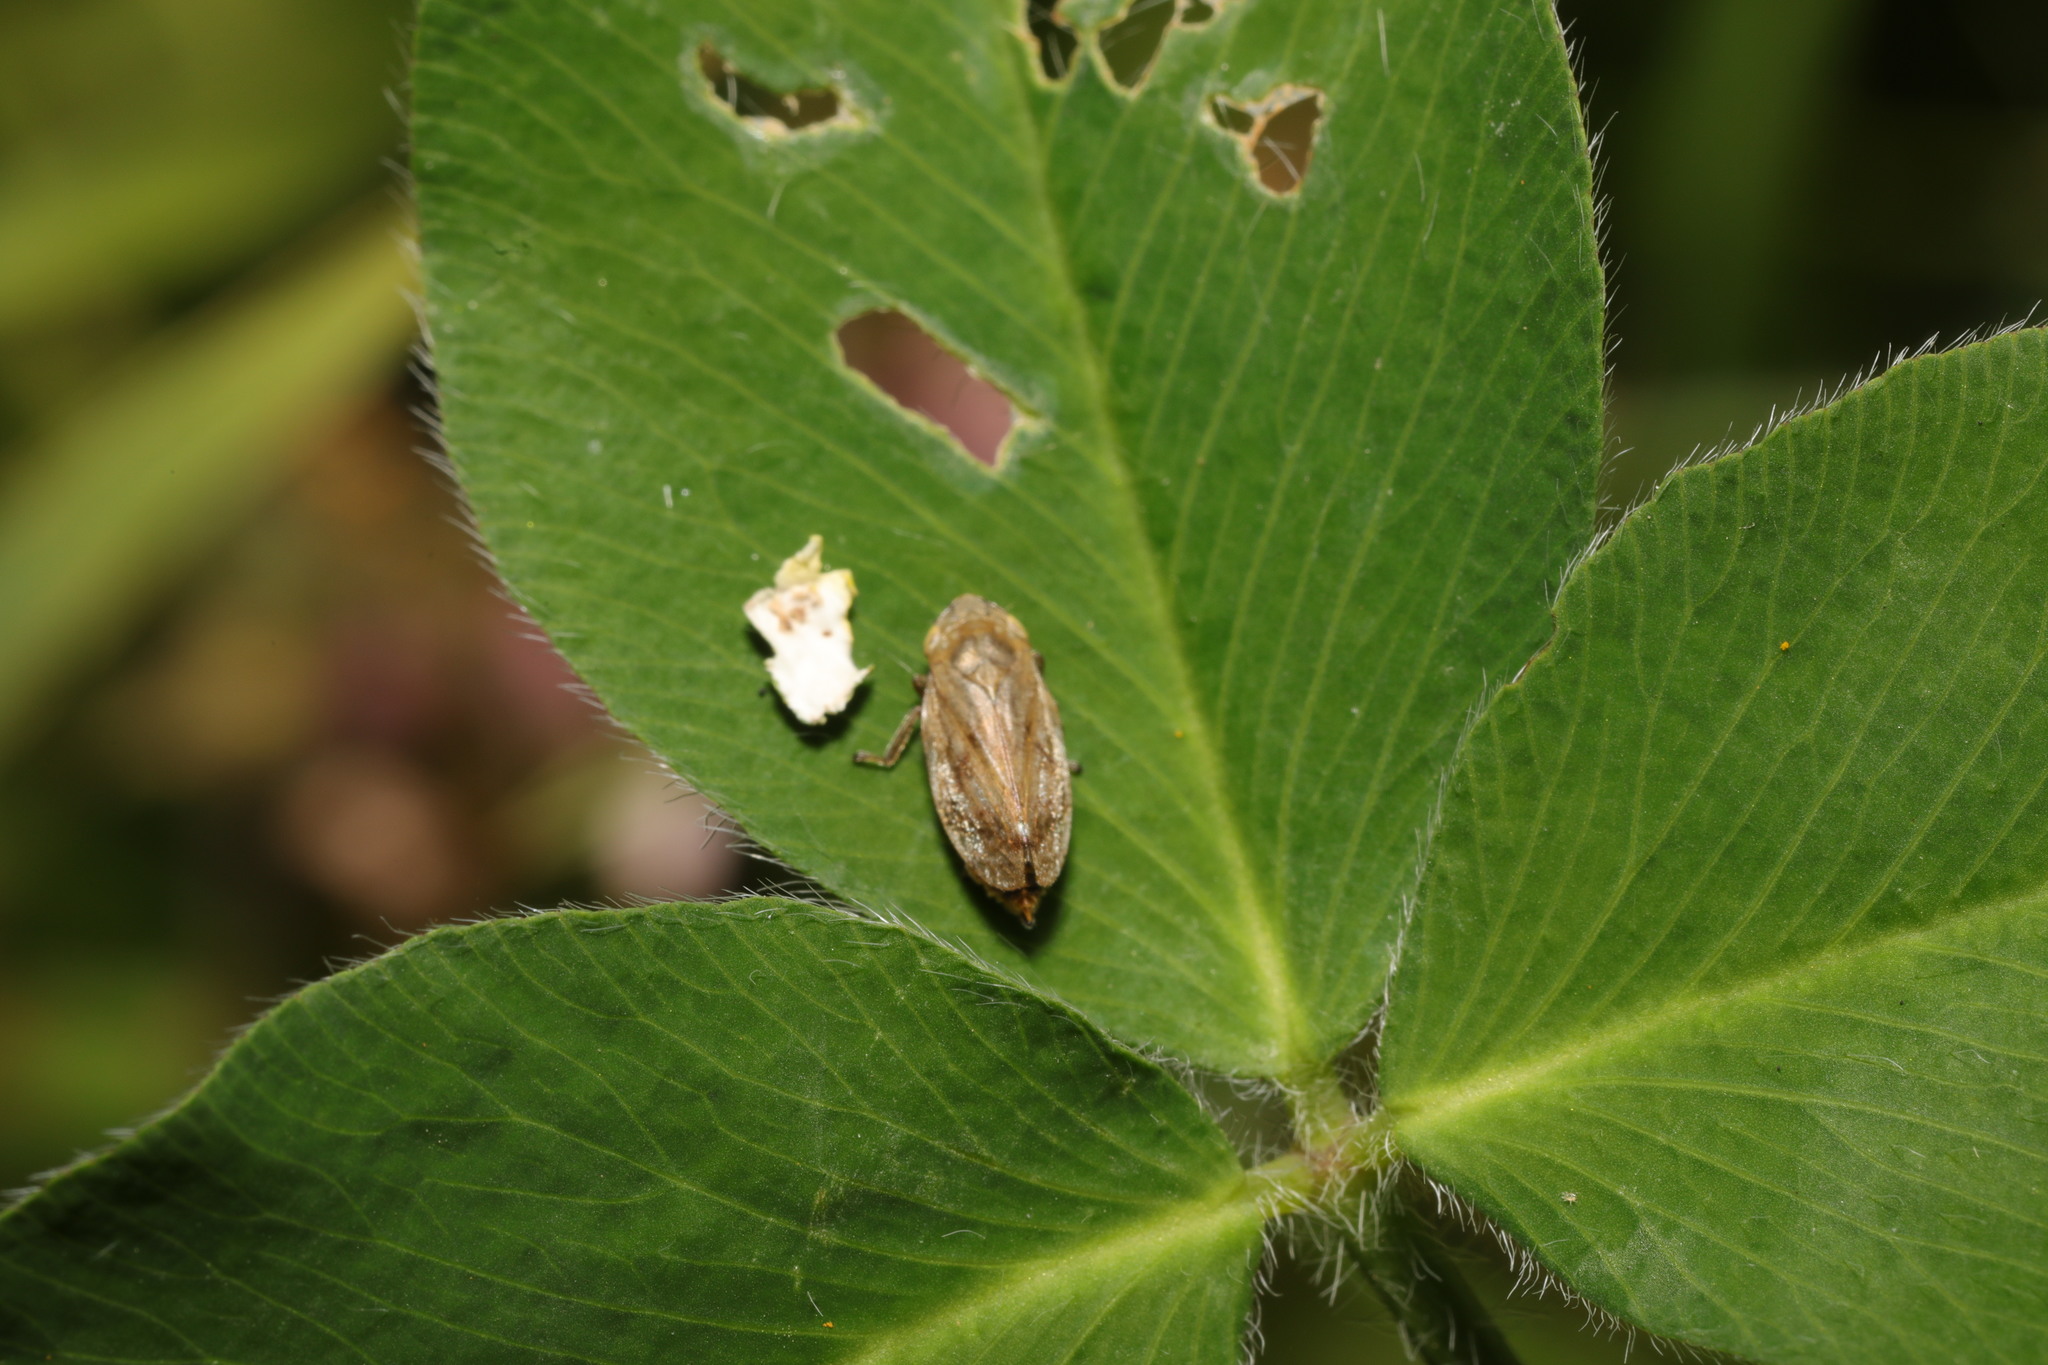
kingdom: Animalia
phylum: Arthropoda
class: Insecta
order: Hemiptera
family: Aphrophoridae
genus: Philaenus
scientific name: Philaenus spumarius
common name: Meadow spittlebug
